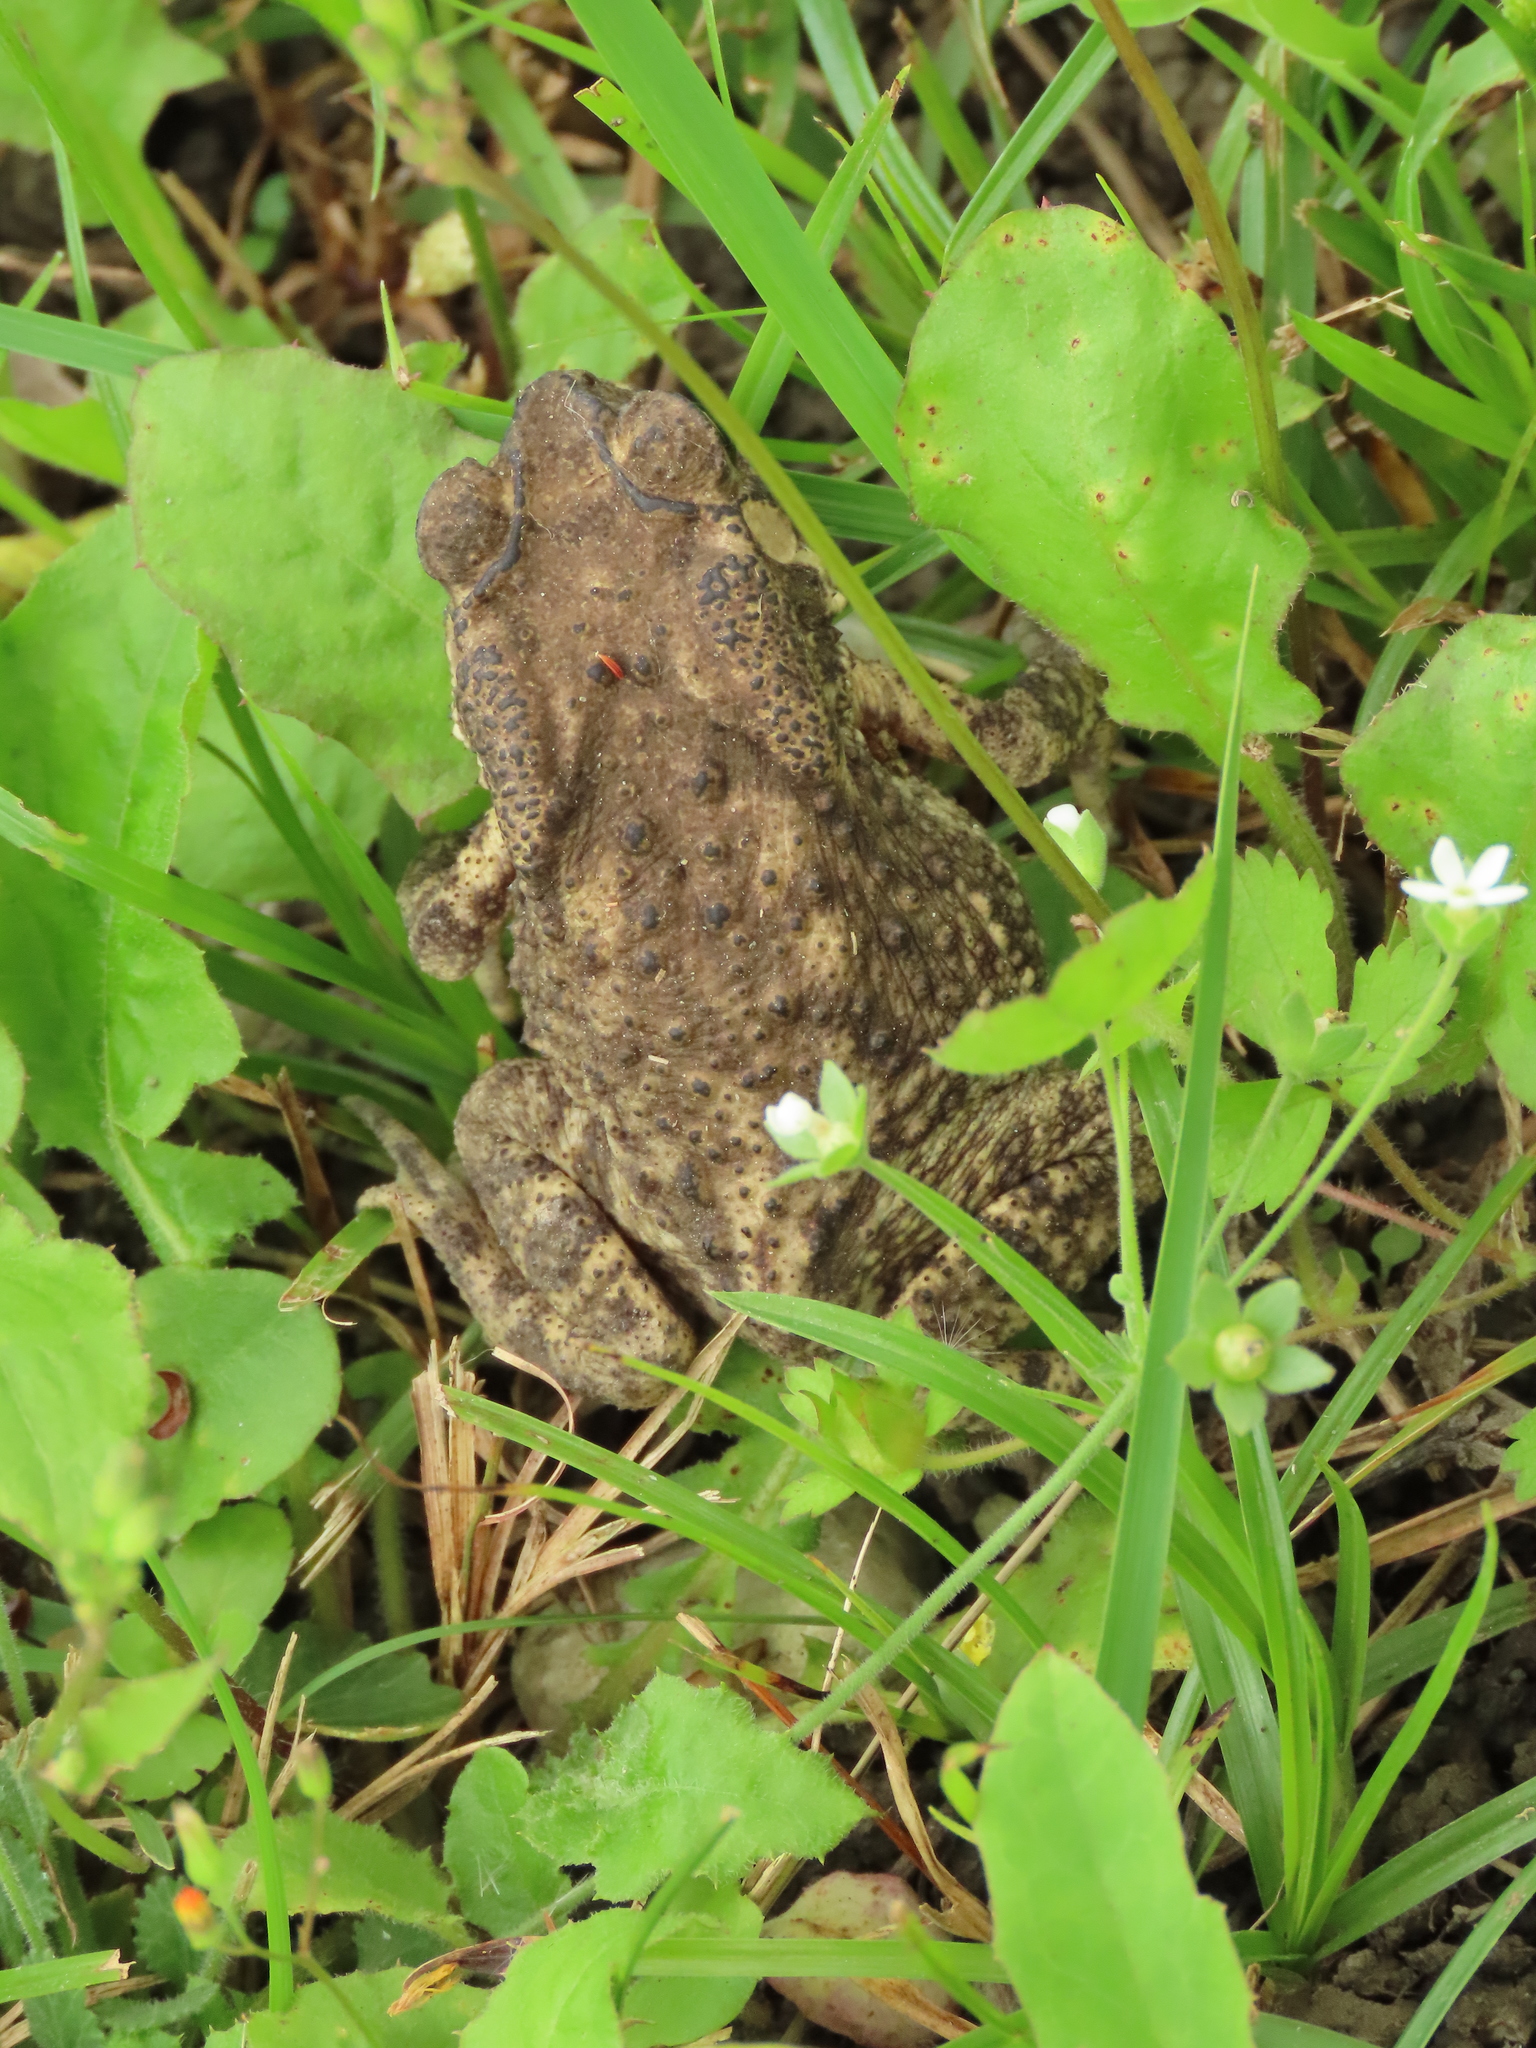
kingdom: Animalia
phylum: Chordata
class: Amphibia
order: Anura
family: Bufonidae
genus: Duttaphrynus
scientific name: Duttaphrynus melanostictus
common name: Common sunda toad
